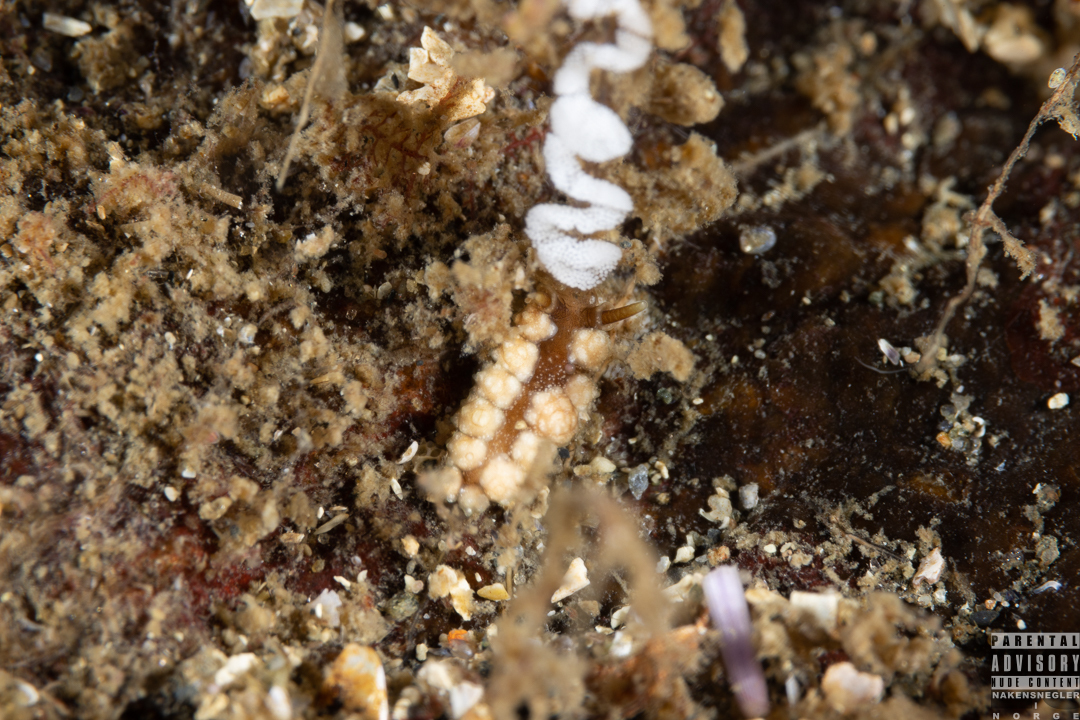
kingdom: Animalia
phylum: Mollusca
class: Gastropoda
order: Nudibranchia
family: Dotidae
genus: Doto
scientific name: Doto fragilis
